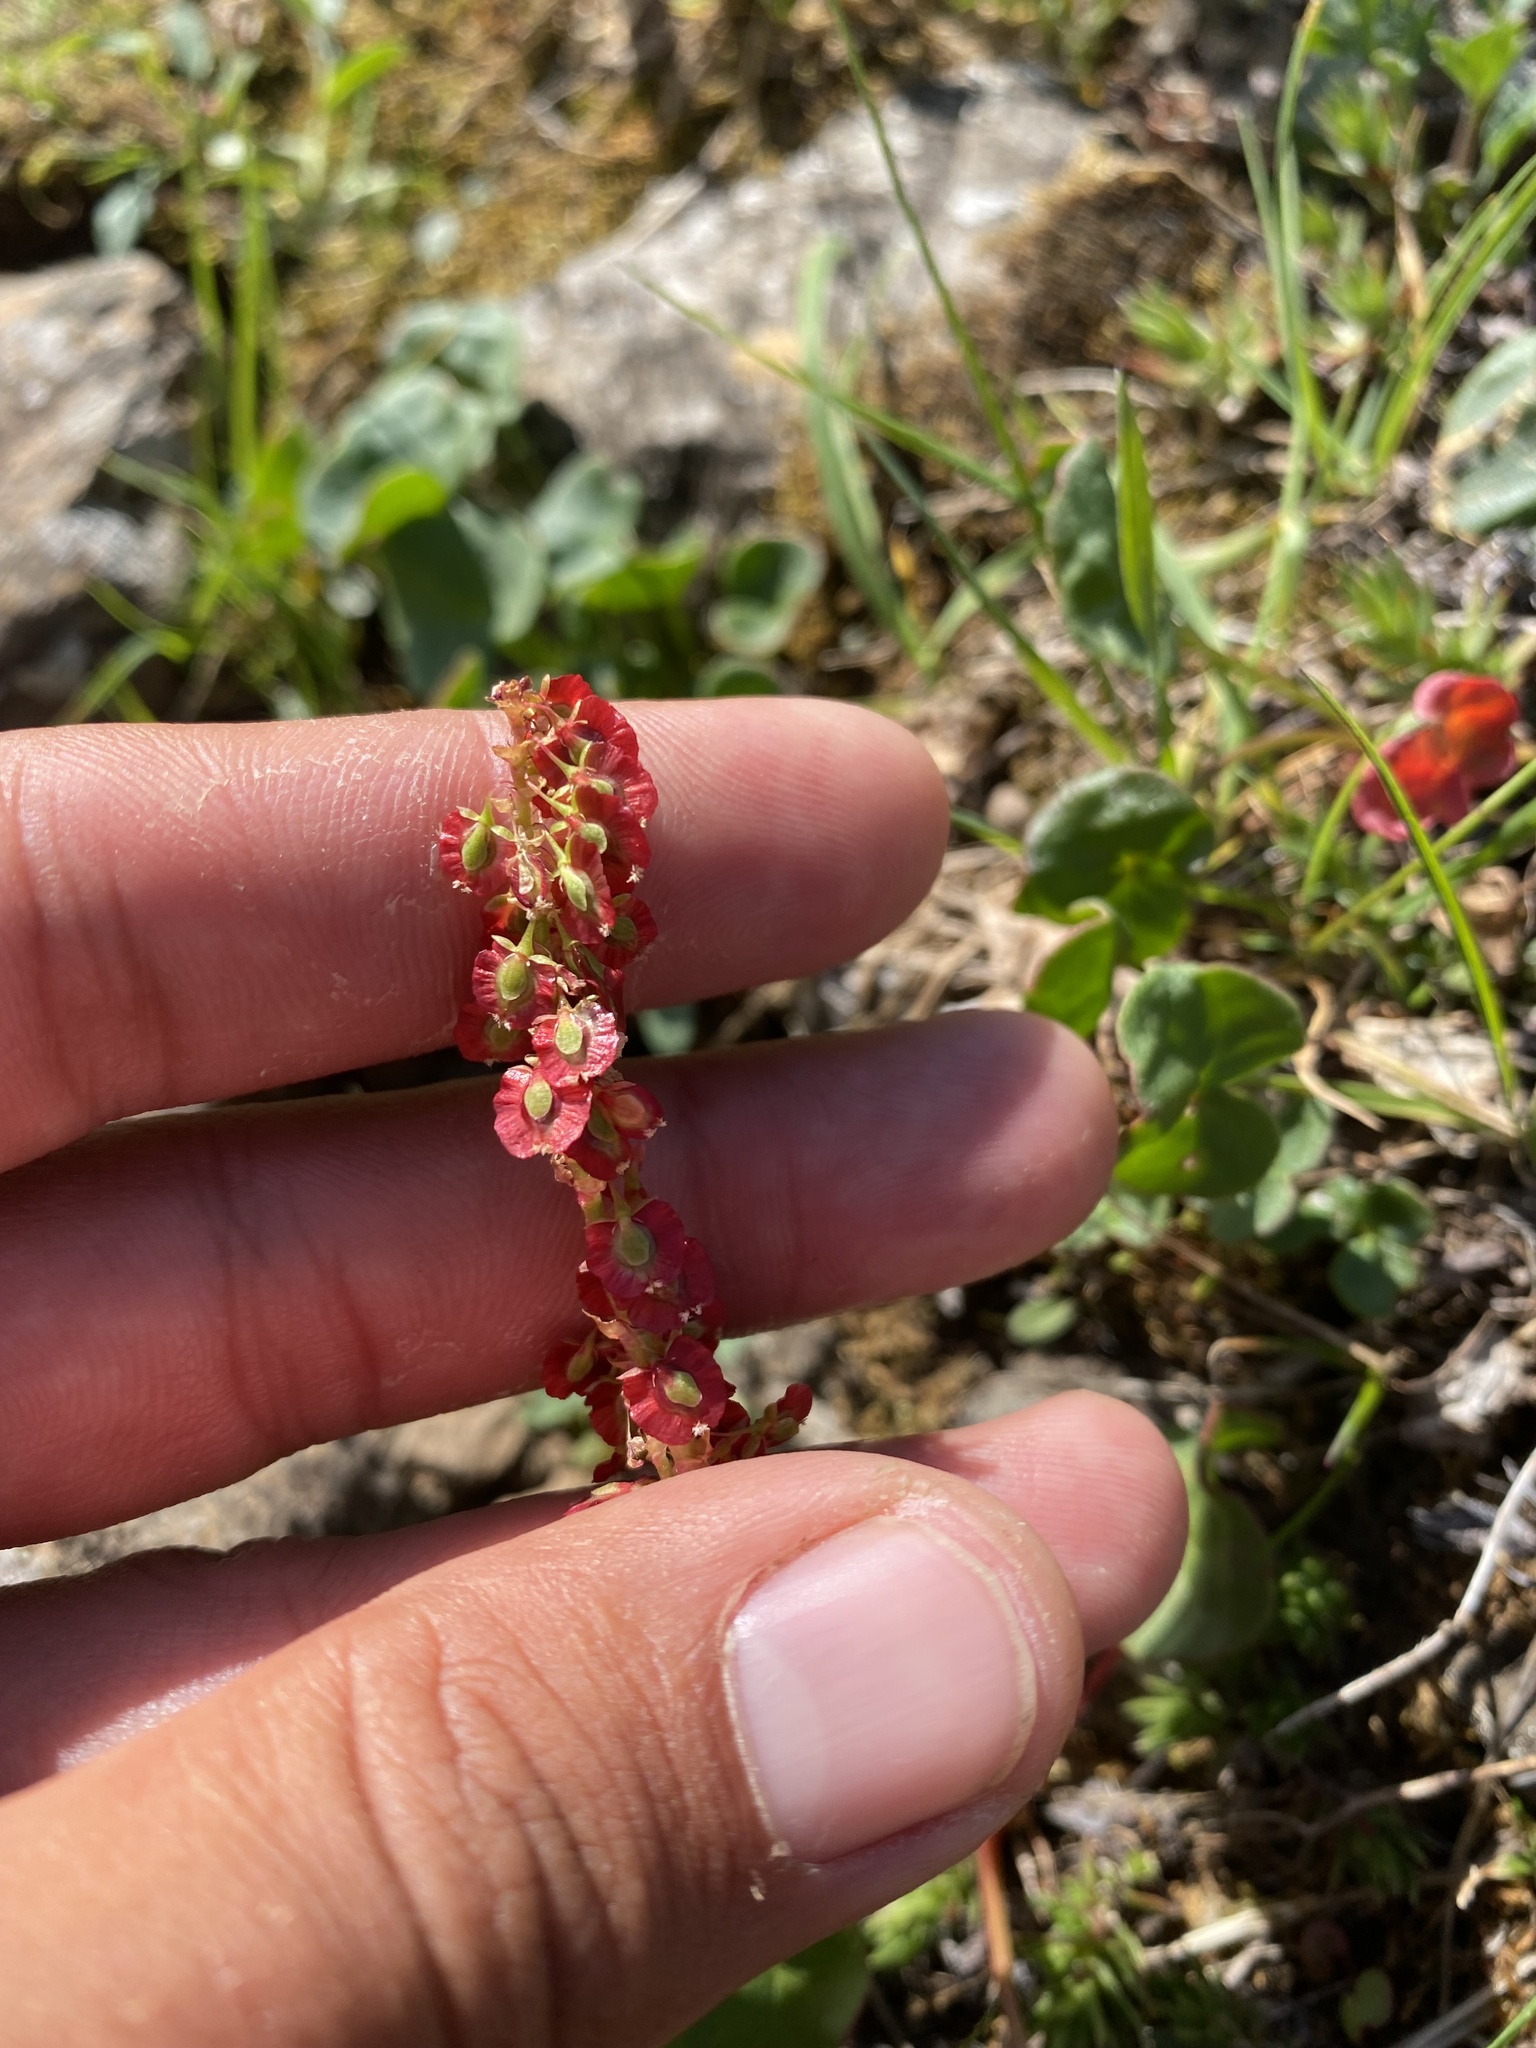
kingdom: Plantae
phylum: Tracheophyta
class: Magnoliopsida
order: Caryophyllales
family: Polygonaceae
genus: Oxyria
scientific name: Oxyria digyna
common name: Alpine mountain-sorrel
